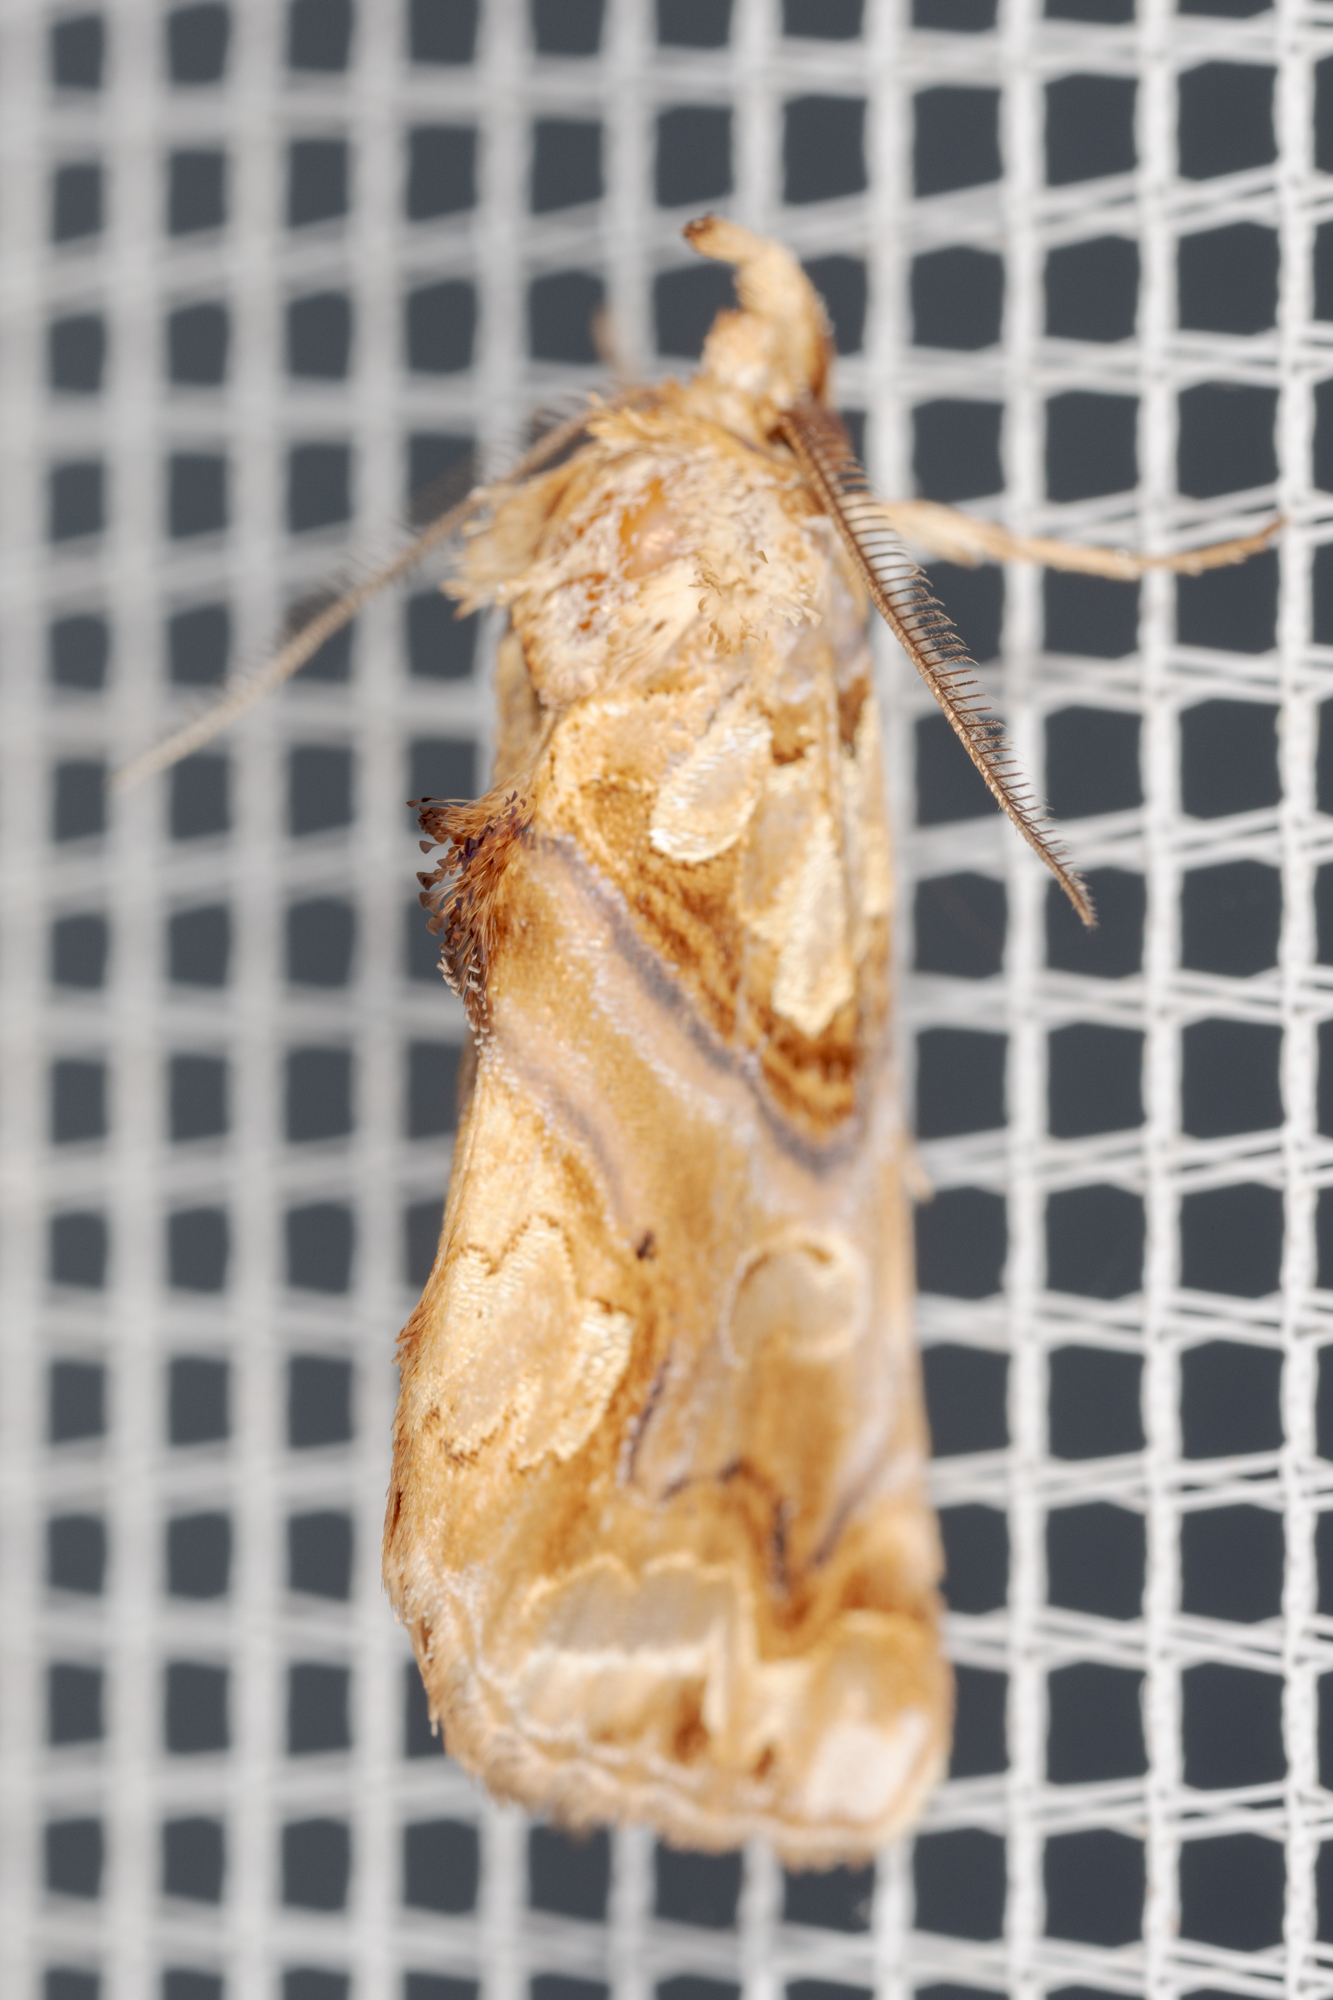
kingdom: Animalia
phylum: Arthropoda
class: Insecta
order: Lepidoptera
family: Erebidae
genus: Plusiodonta
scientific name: Plusiodonta compressipalpis
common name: Moonseed moth
